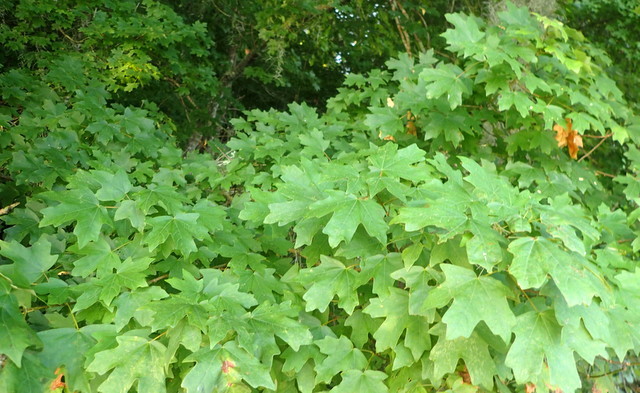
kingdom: Plantae
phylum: Tracheophyta
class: Magnoliopsida
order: Sapindales
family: Sapindaceae
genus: Acer
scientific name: Acer floridanum
